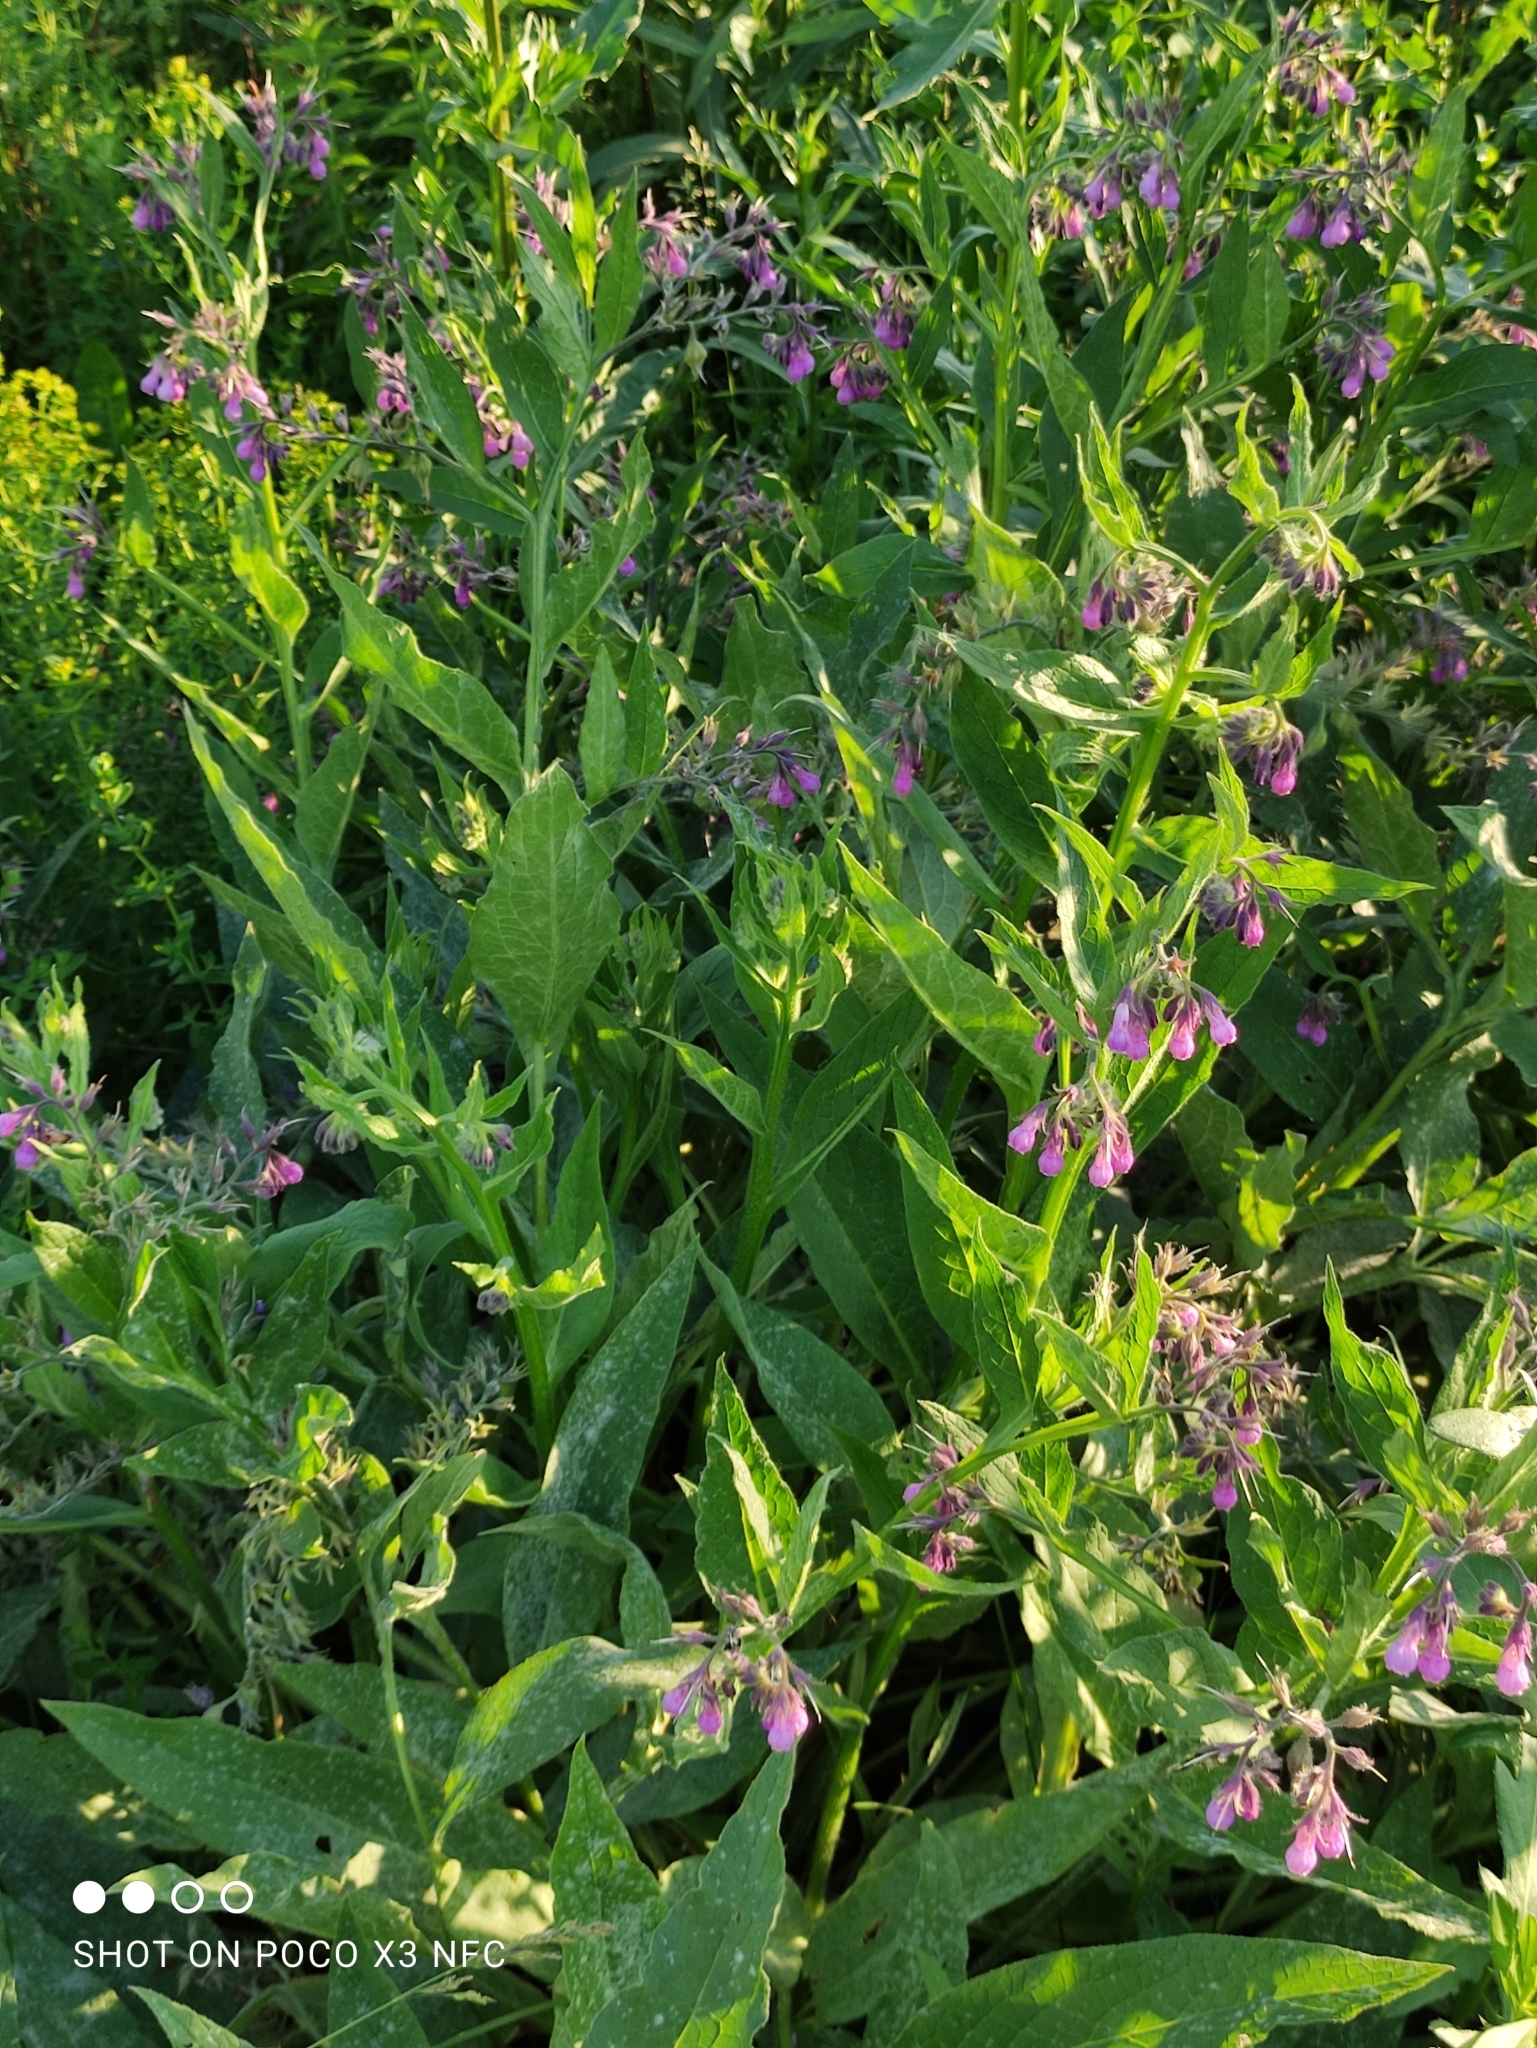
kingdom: Plantae
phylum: Tracheophyta
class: Magnoliopsida
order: Boraginales
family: Boraginaceae
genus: Symphytum
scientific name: Symphytum officinale
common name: Common comfrey
